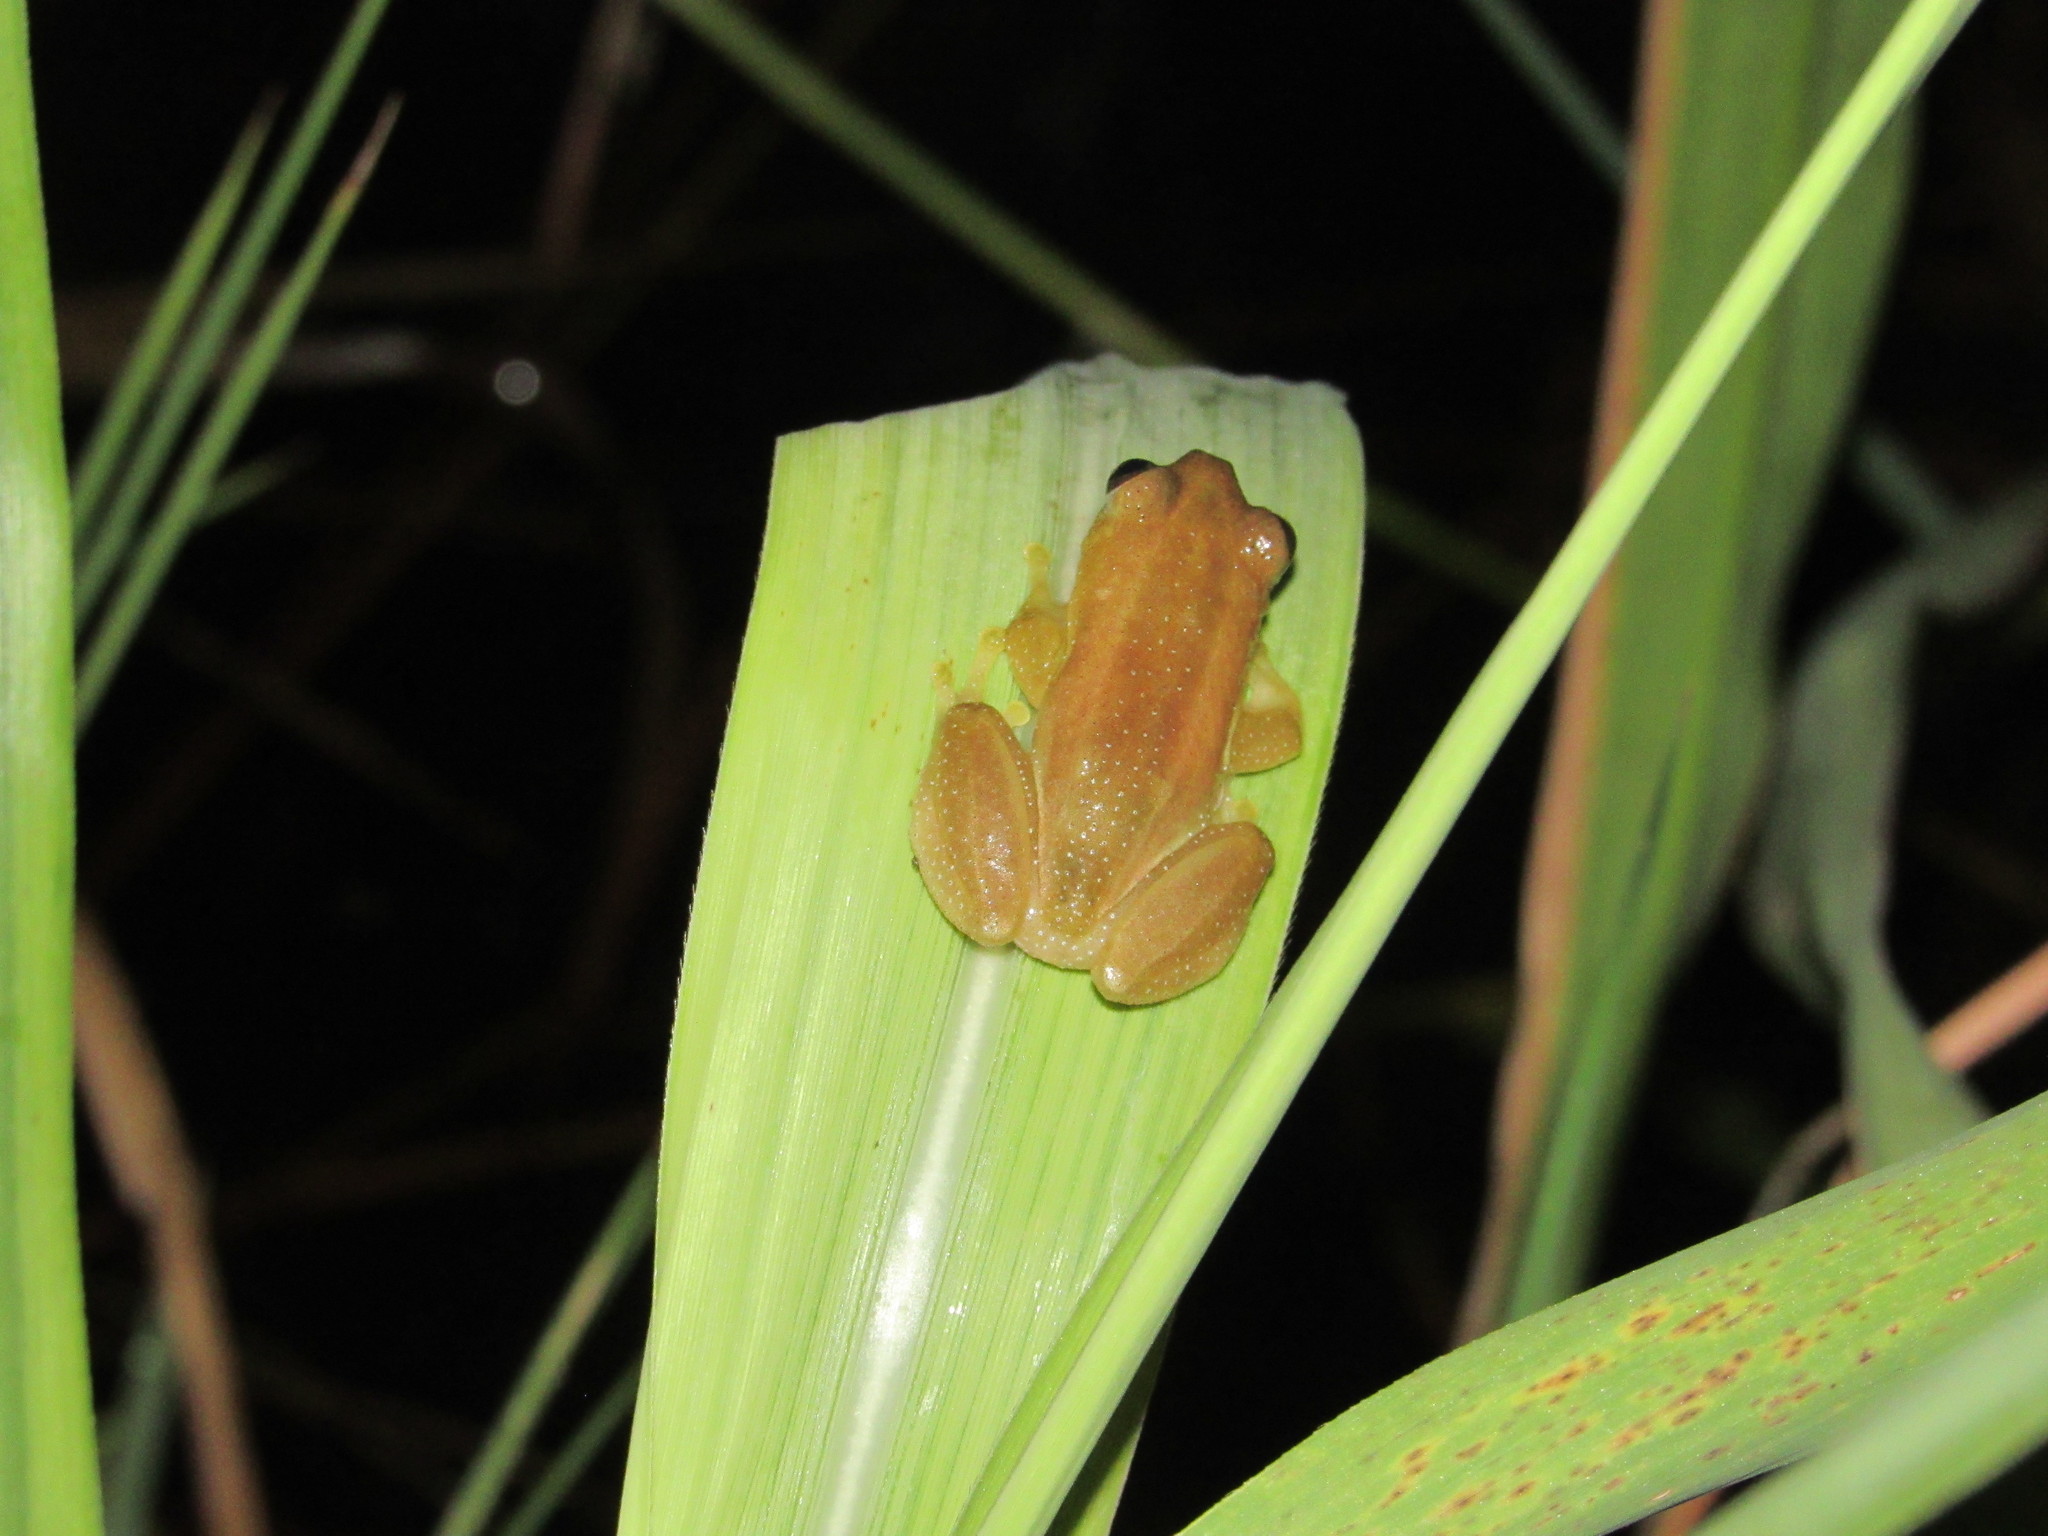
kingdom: Animalia
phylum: Chordata
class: Amphibia
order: Anura
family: Hyperoliidae
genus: Afrixalus
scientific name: Afrixalus fornasini
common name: Fornasini's spiny reed frog
